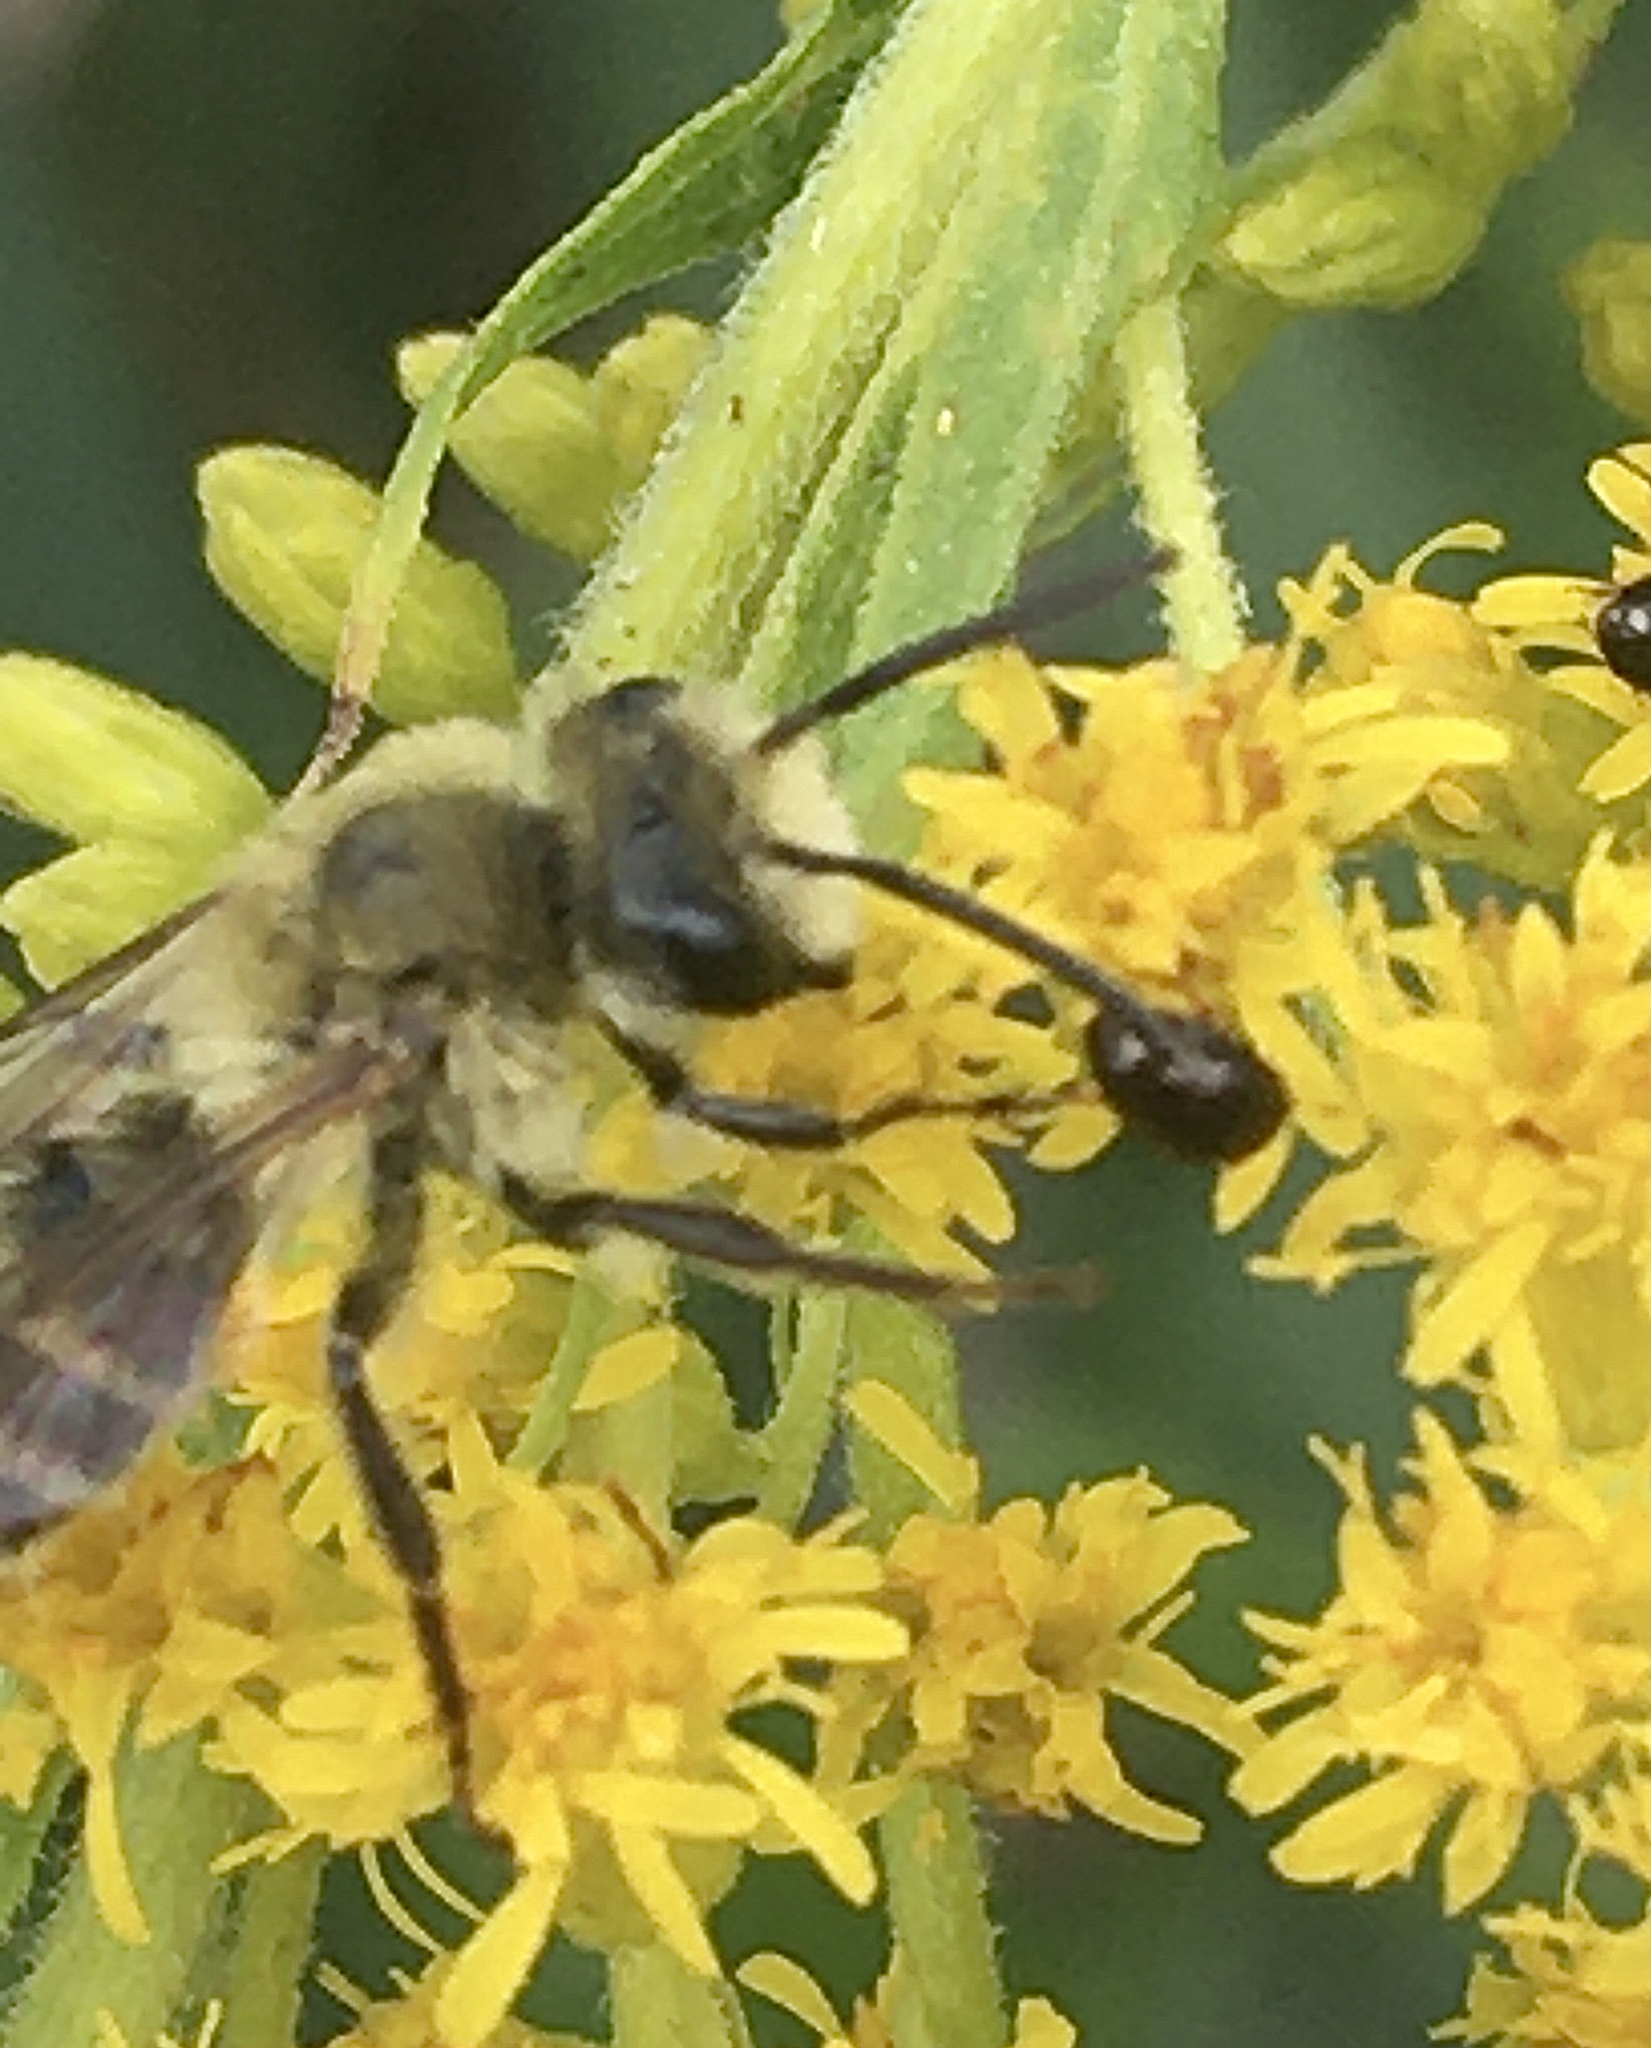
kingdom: Animalia
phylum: Arthropoda
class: Insecta
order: Hymenoptera
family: Andrenidae
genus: Andrena
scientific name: Andrena hirticincta
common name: Hairy-banded mining bee
